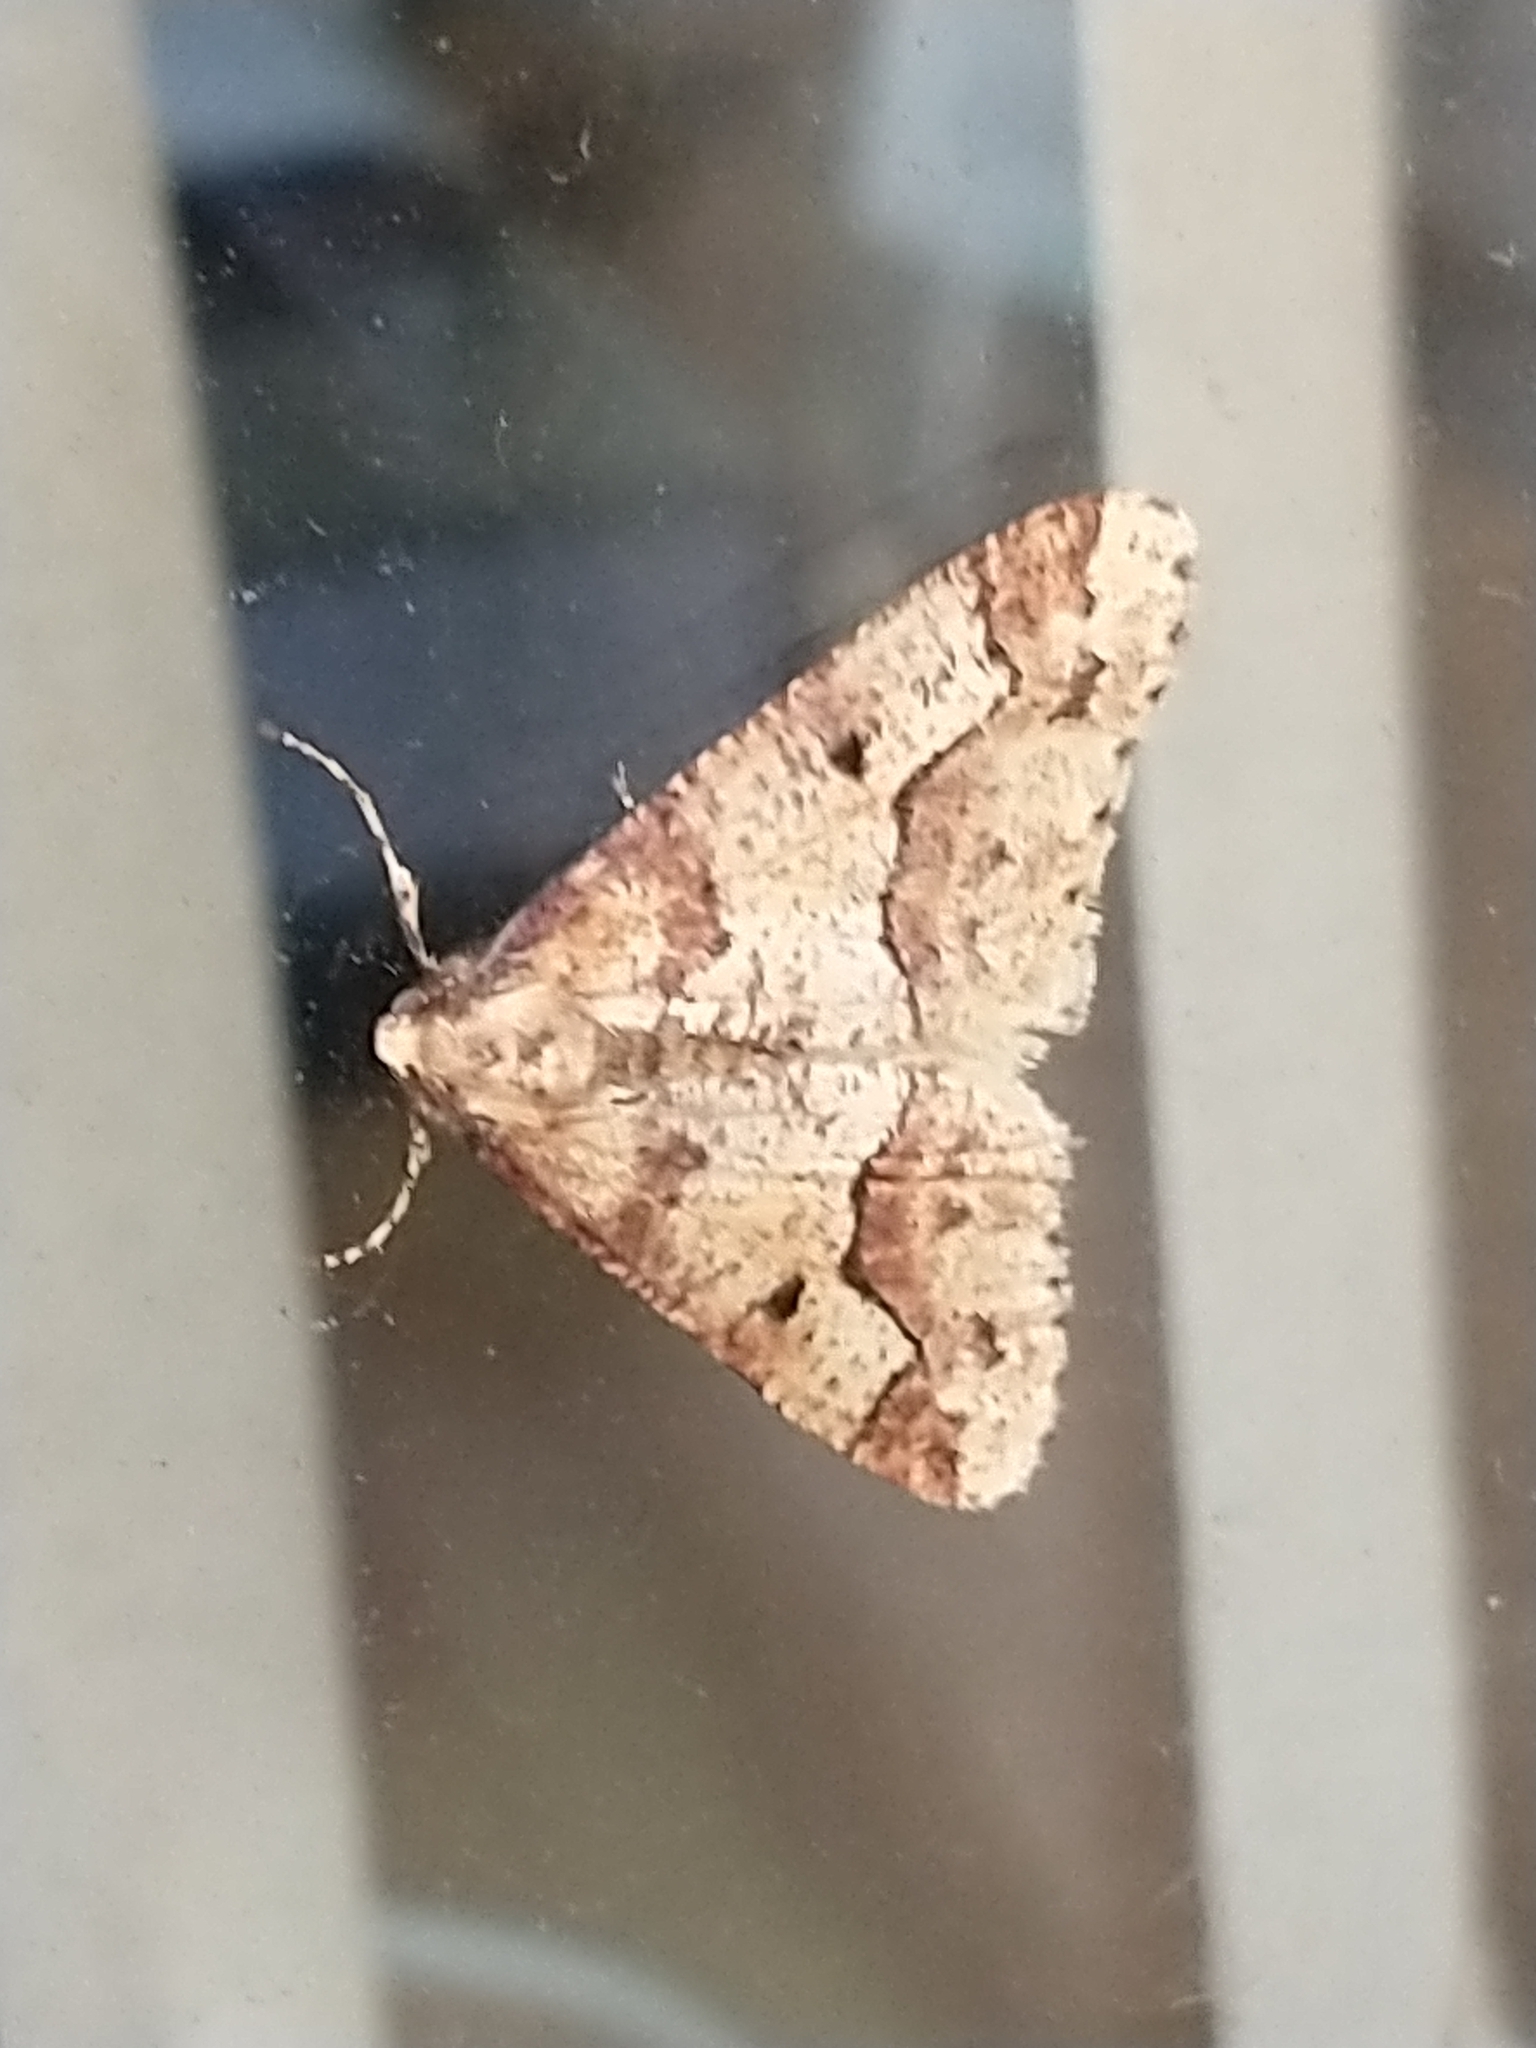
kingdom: Animalia
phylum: Arthropoda
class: Insecta
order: Lepidoptera
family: Geometridae
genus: Erannis
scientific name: Erannis defoliaria
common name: Mottled umber
